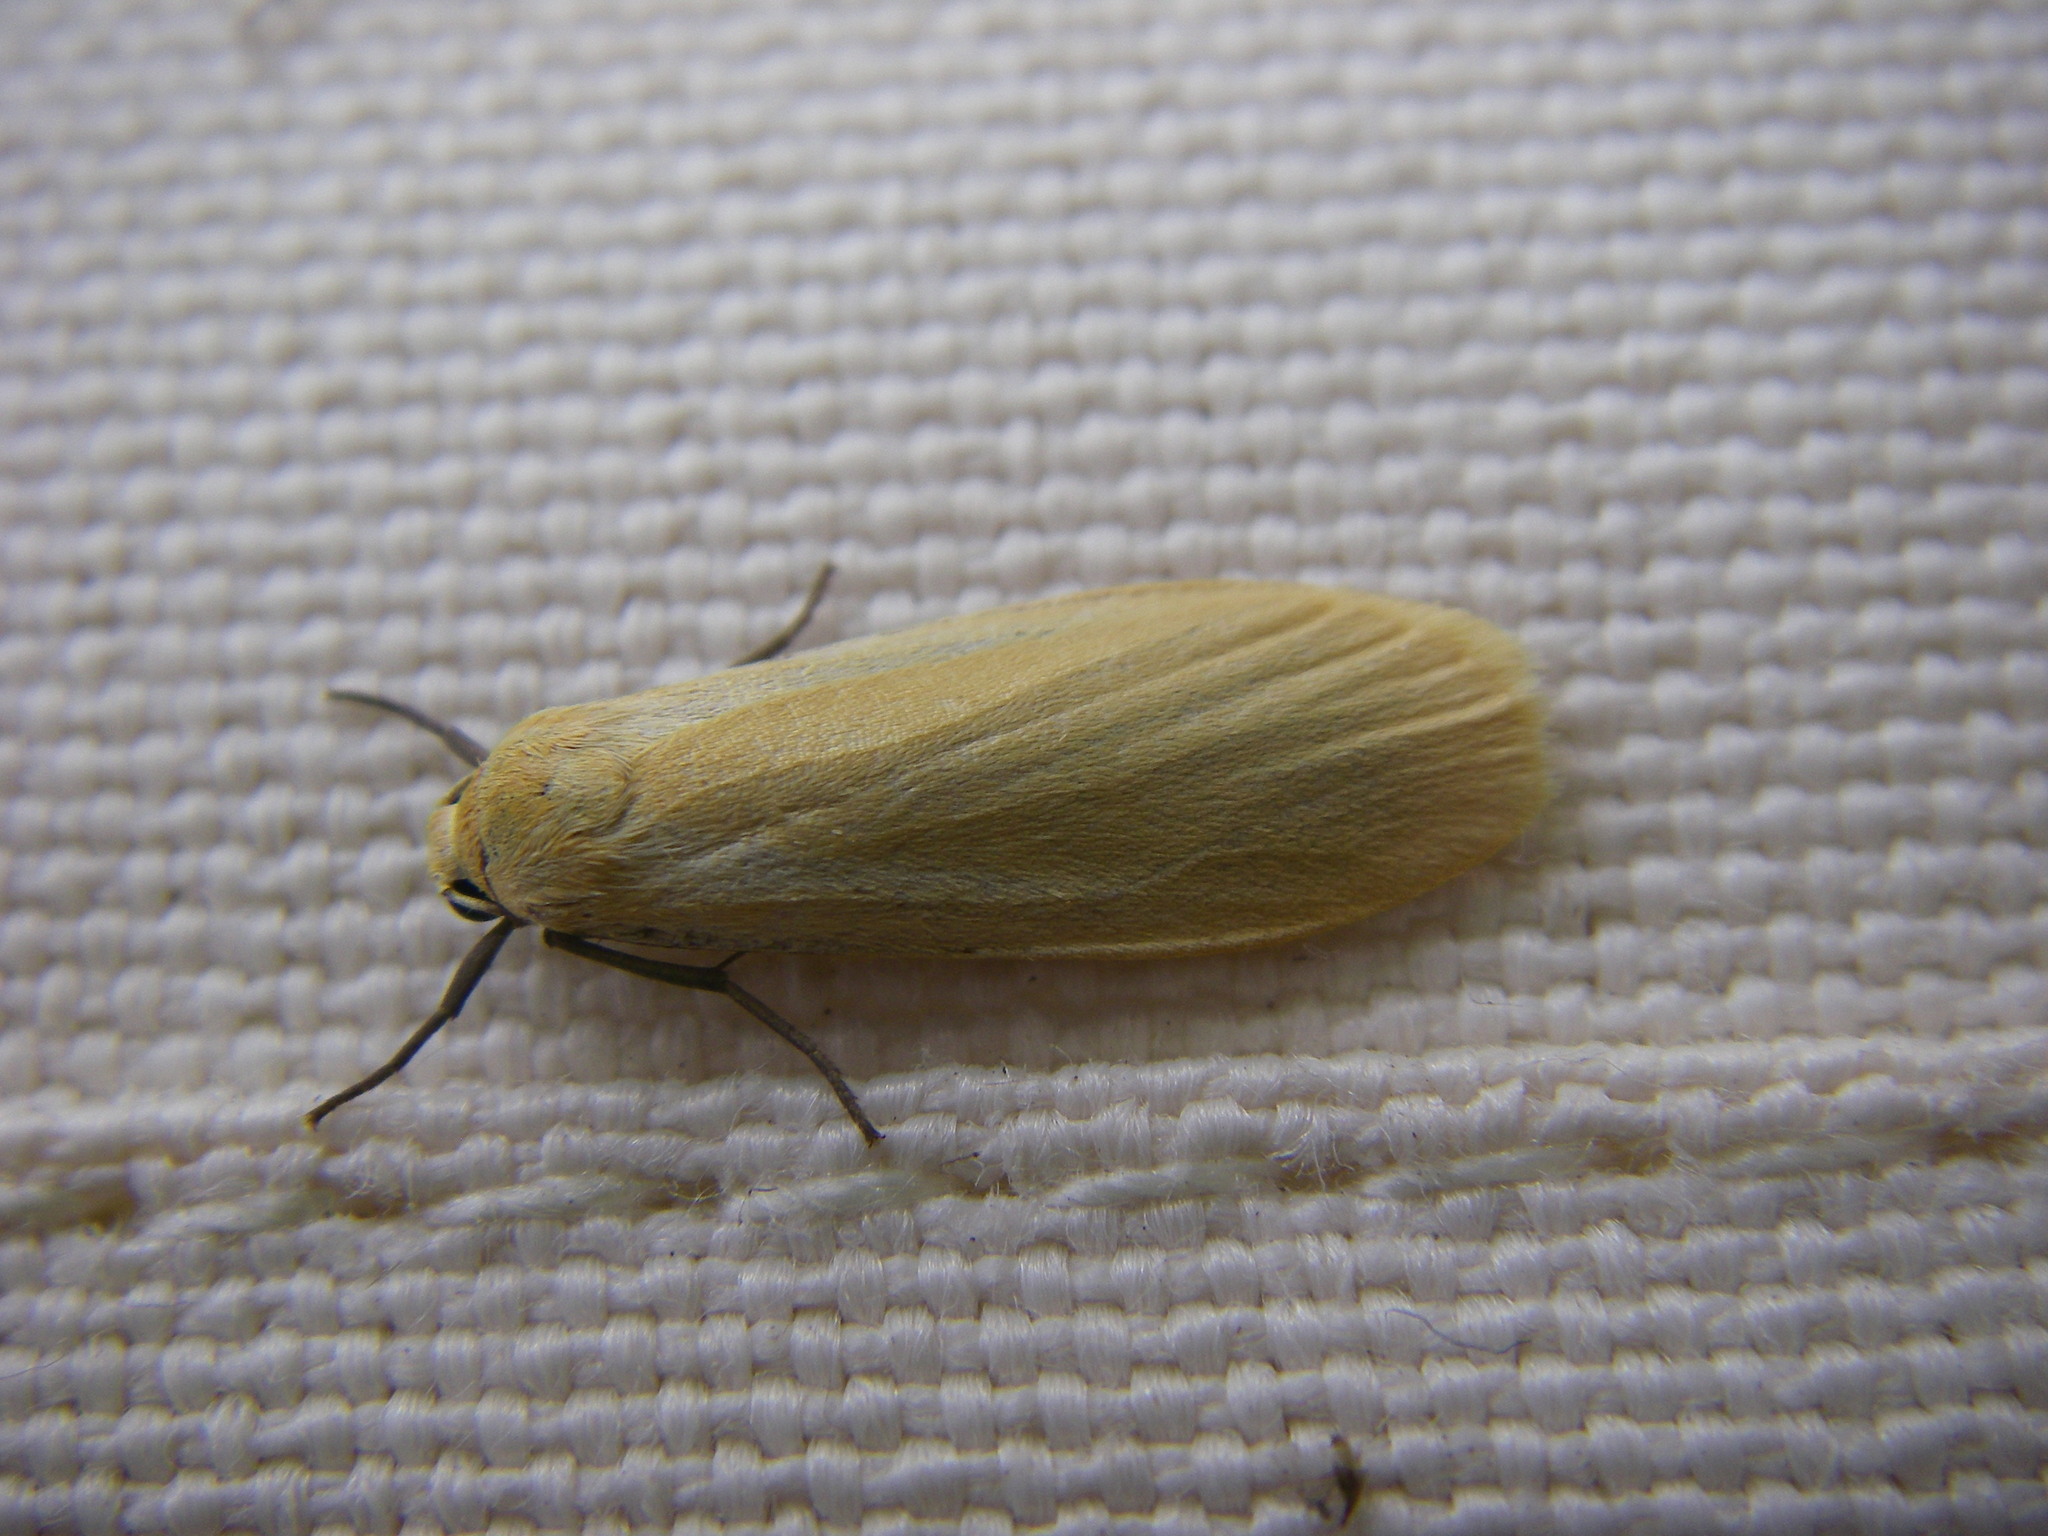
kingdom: Animalia
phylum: Arthropoda
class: Insecta
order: Lepidoptera
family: Erebidae
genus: Wittia
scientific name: Wittia sororcula
